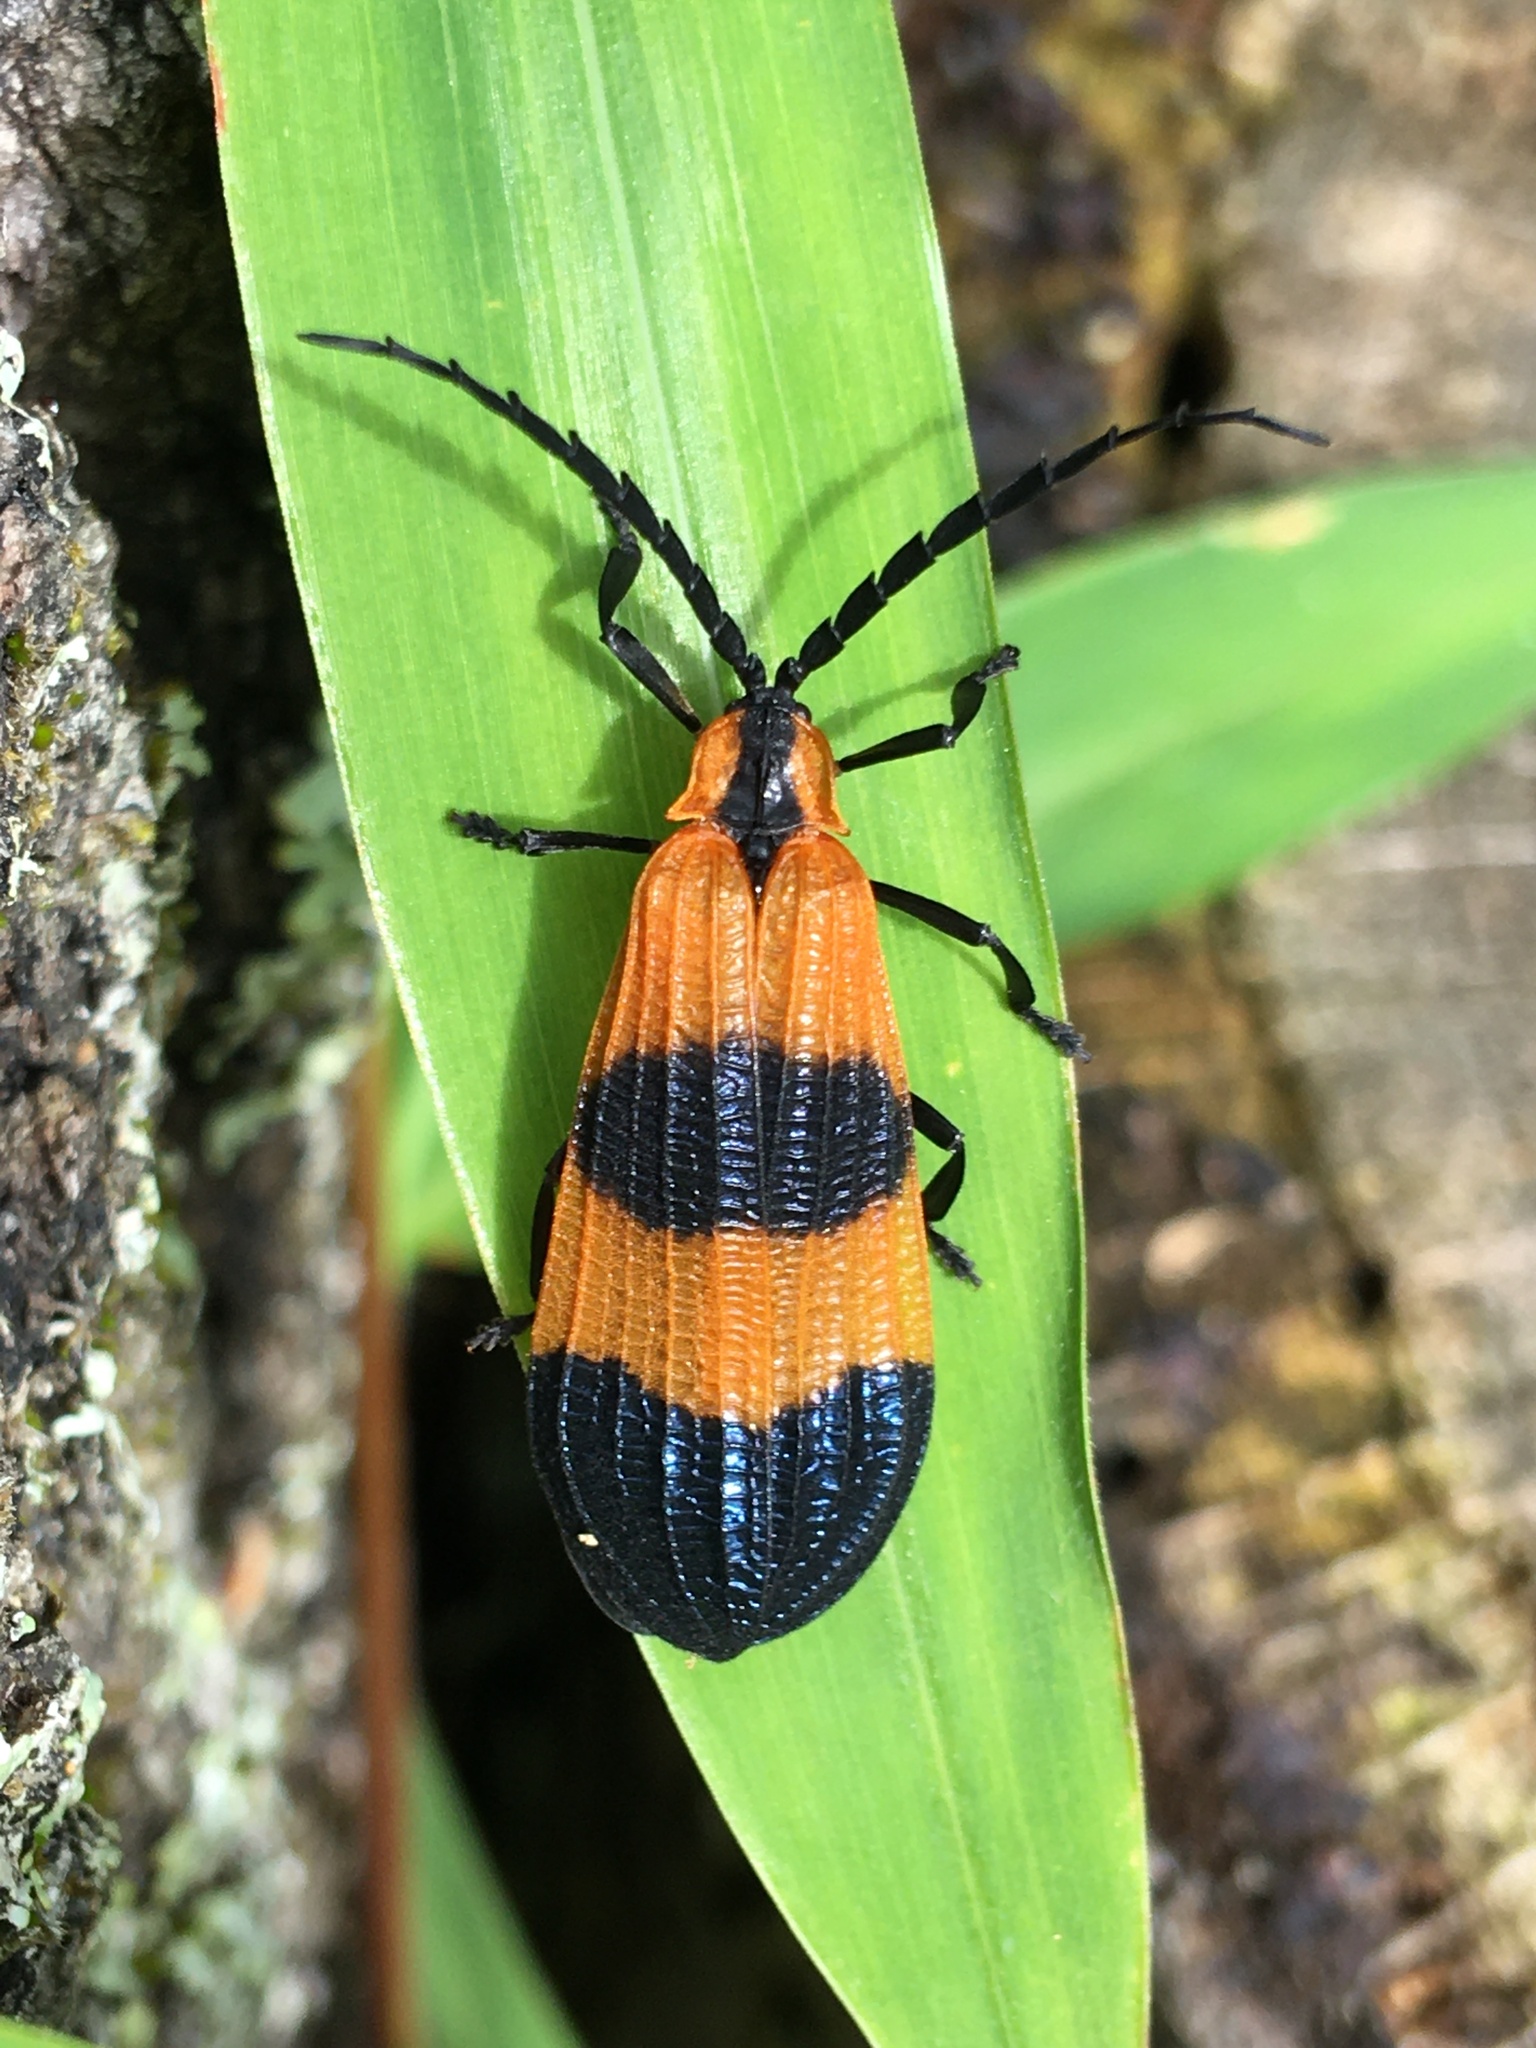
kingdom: Animalia
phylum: Arthropoda
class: Insecta
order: Coleoptera
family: Lycidae
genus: Calopteron
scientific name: Calopteron reticulatum
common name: Banded net-winged beetle
